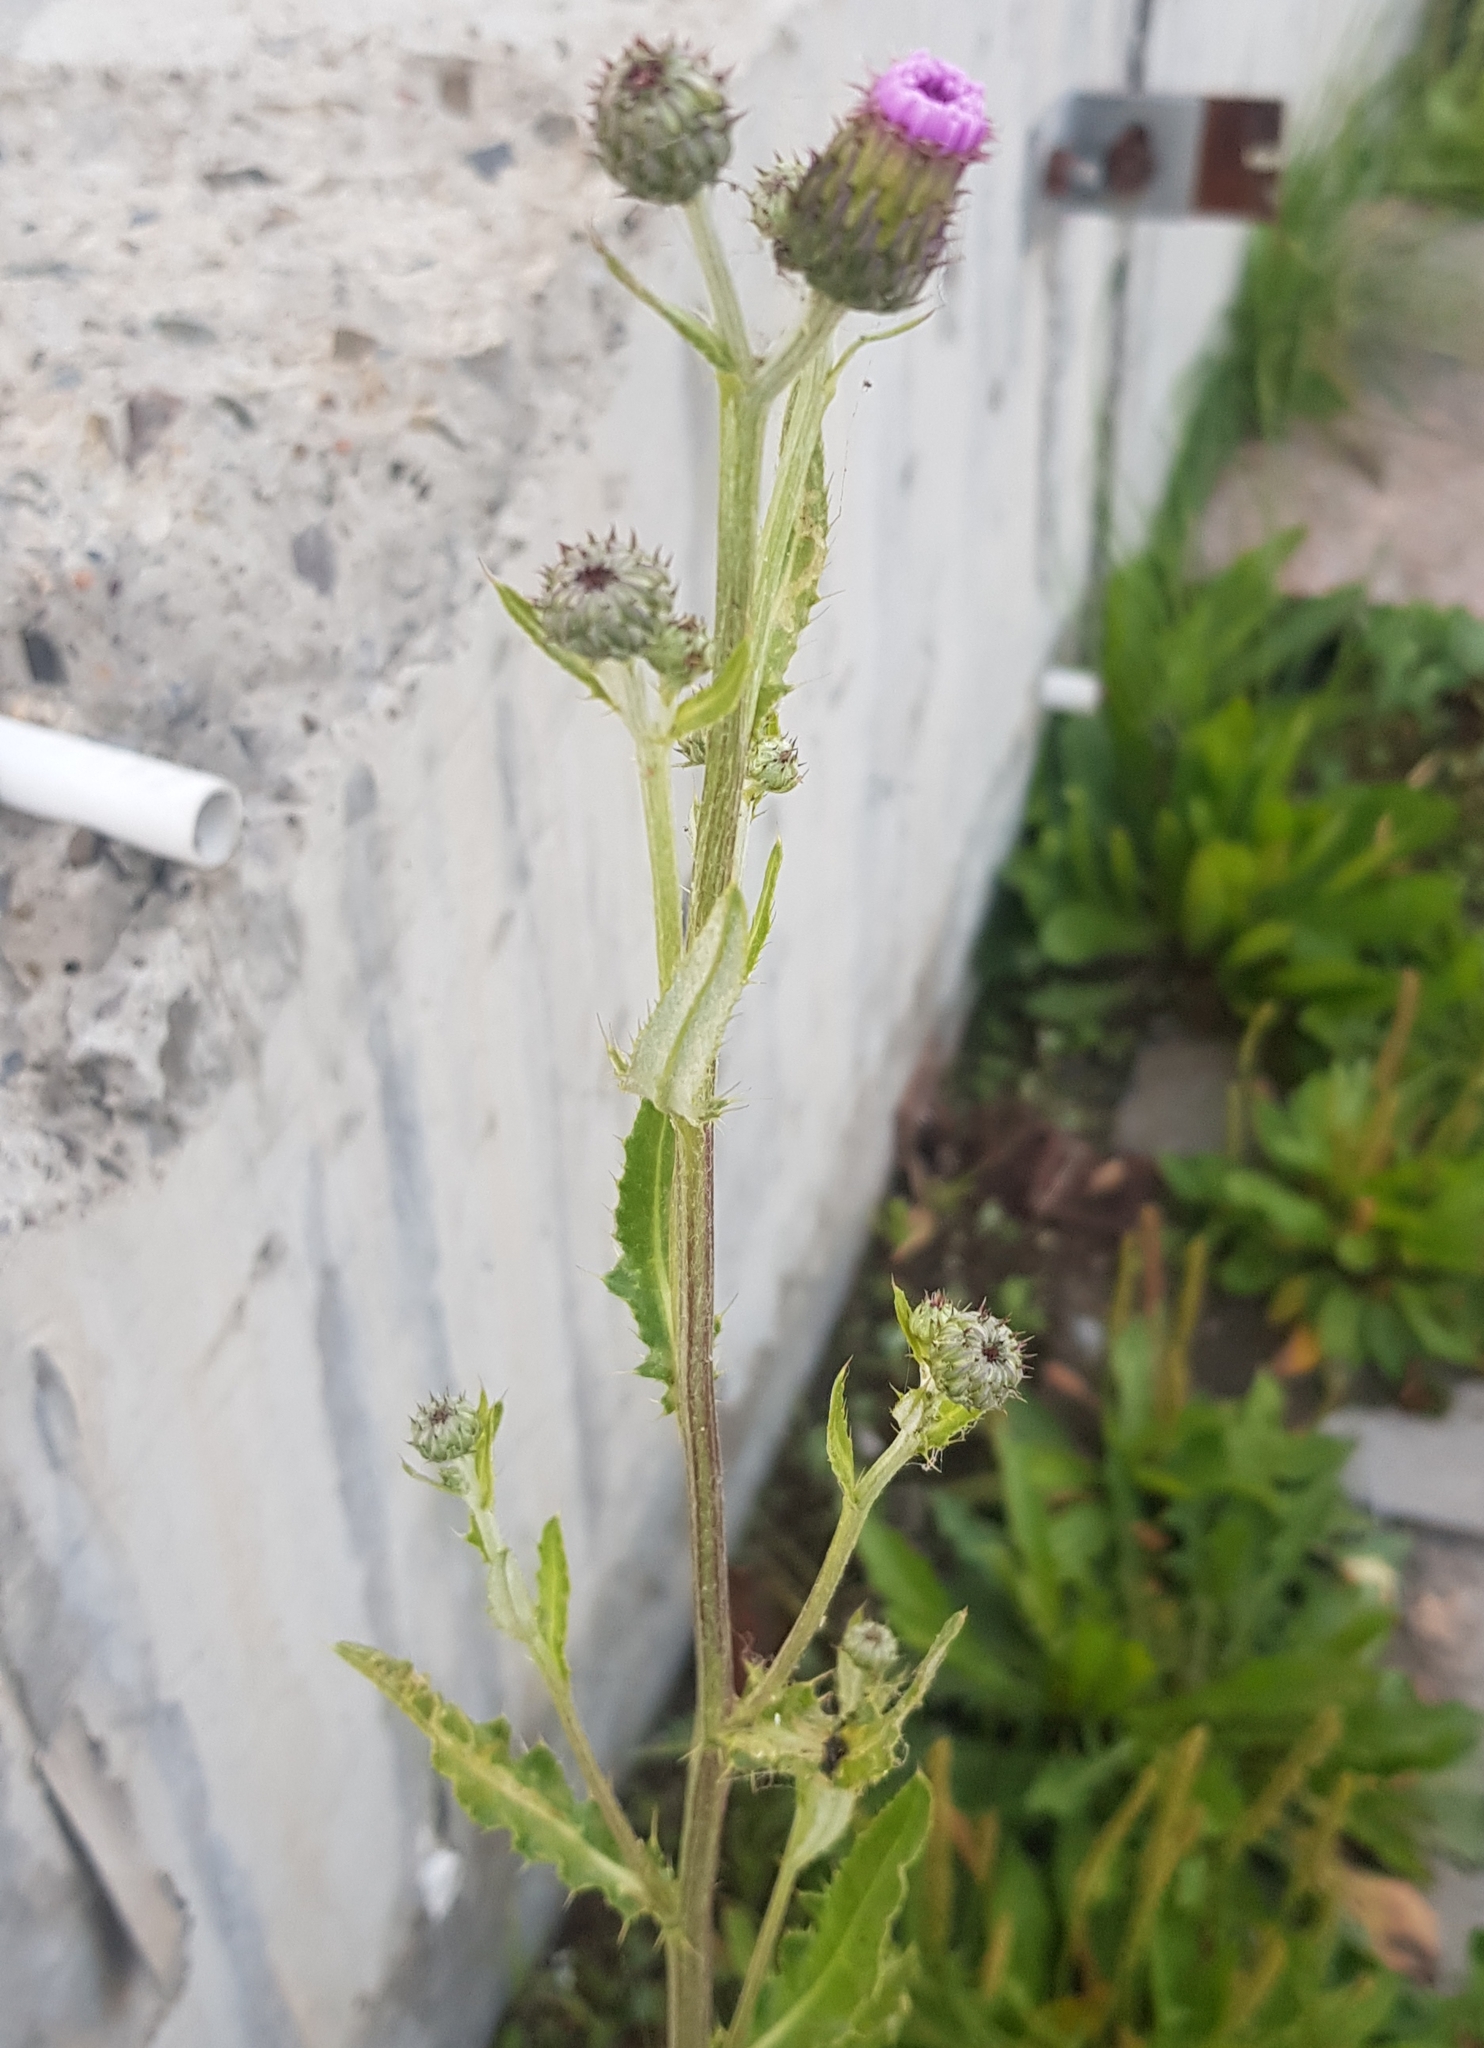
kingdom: Plantae
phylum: Tracheophyta
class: Magnoliopsida
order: Asterales
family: Asteraceae
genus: Cirsium
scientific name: Cirsium arvense
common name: Creeping thistle
